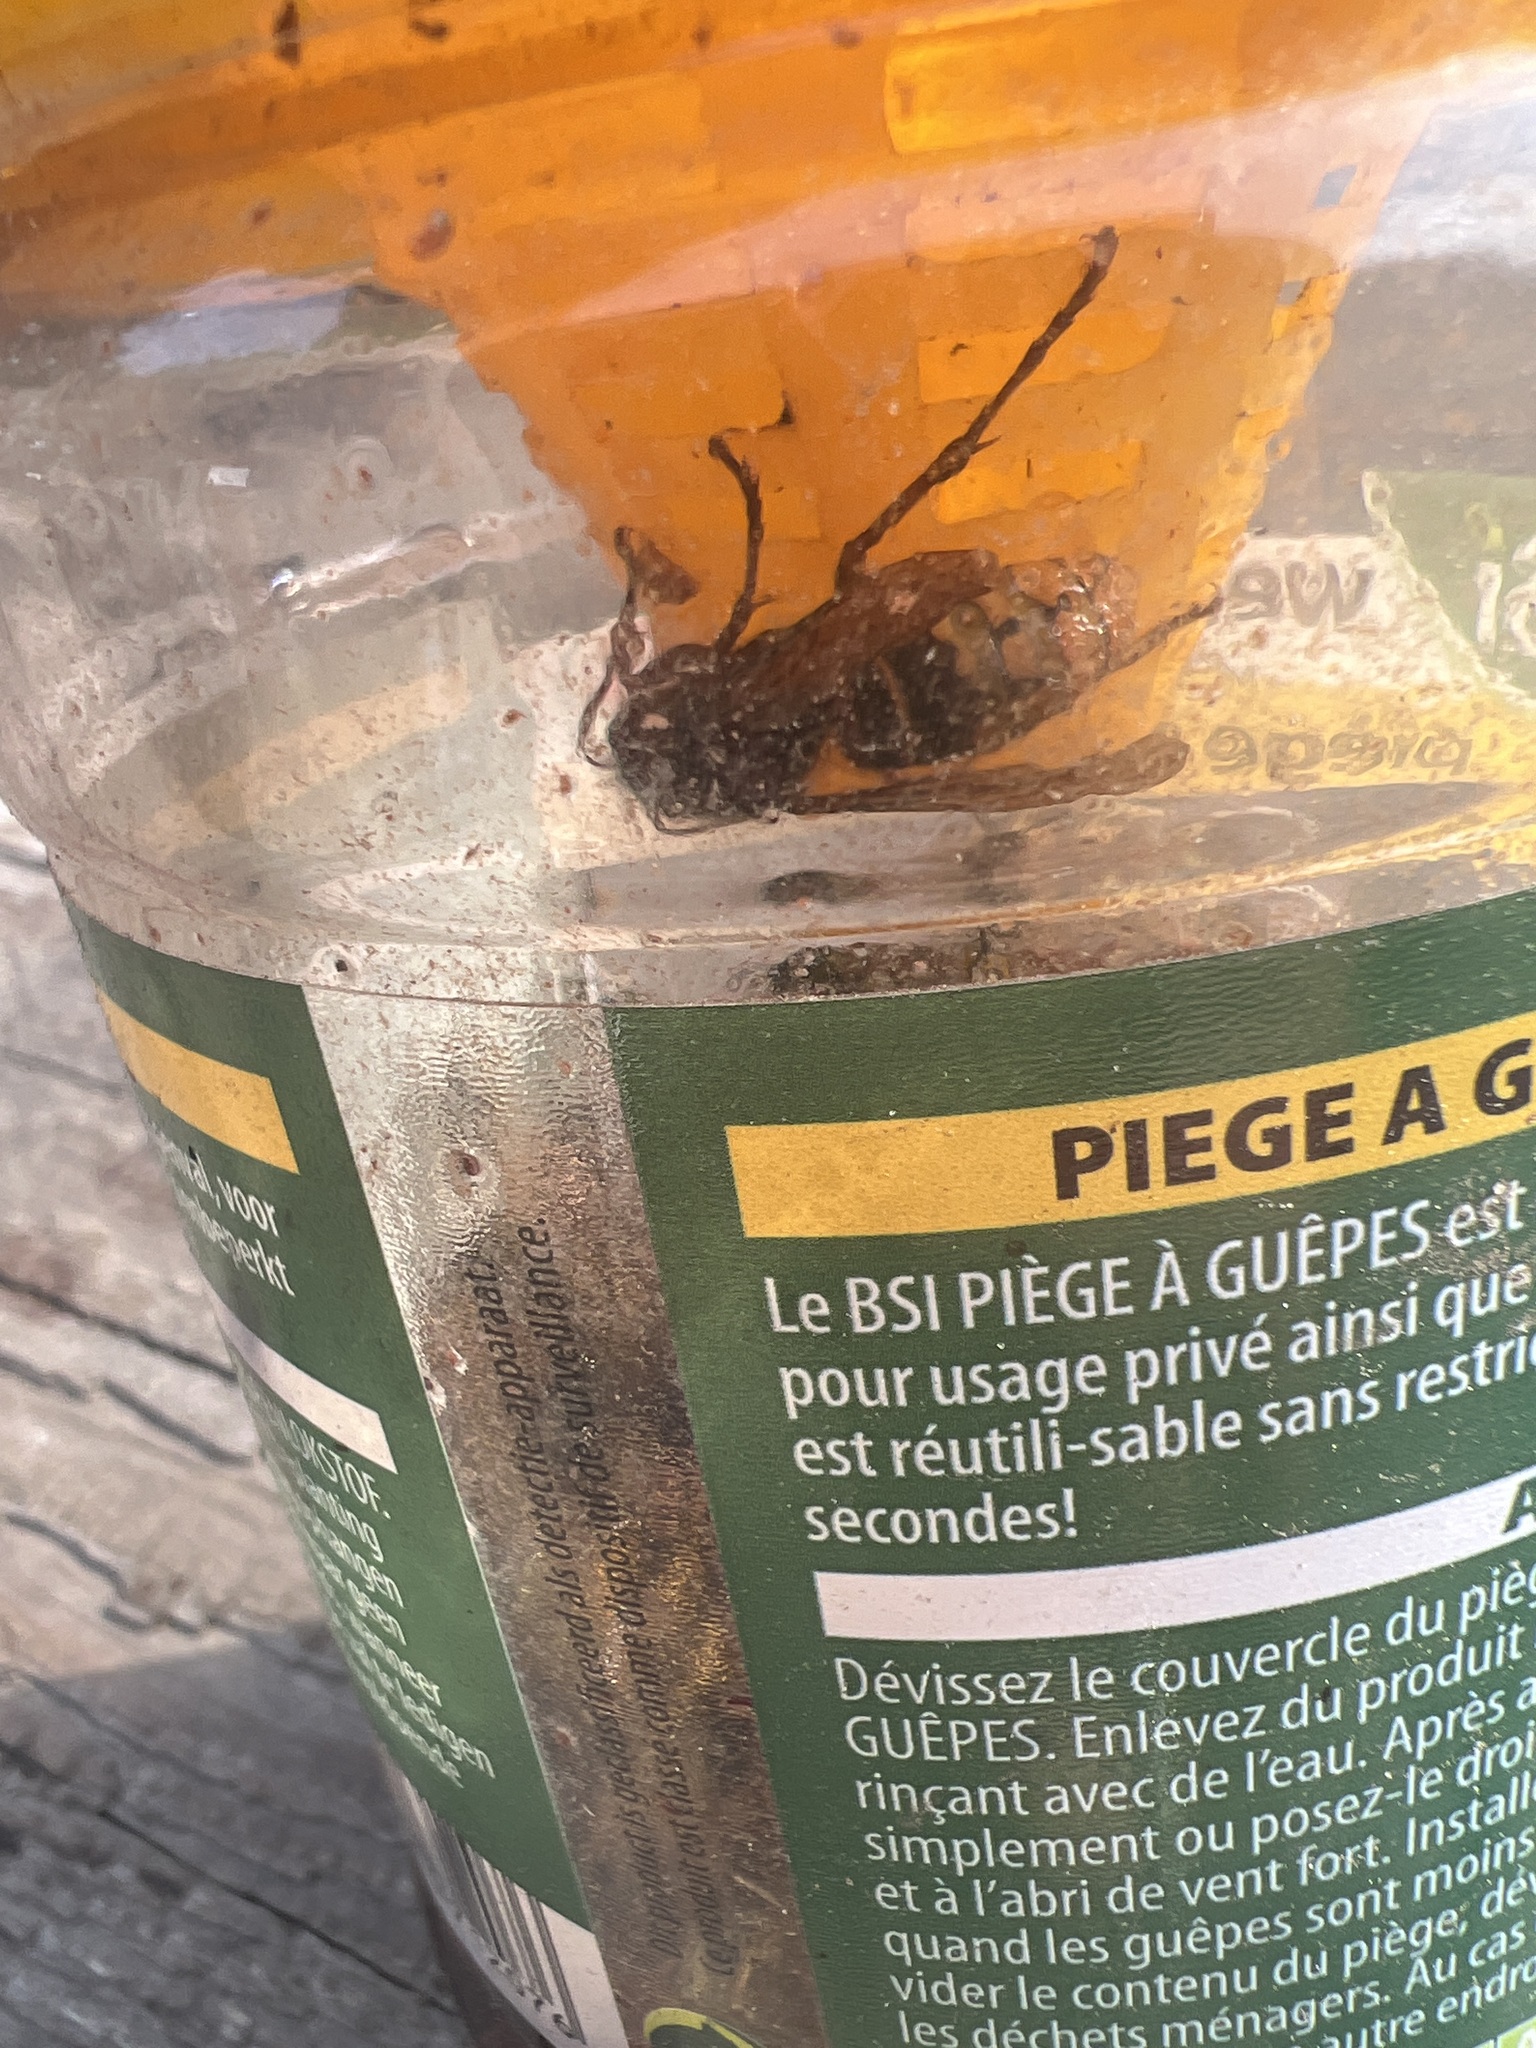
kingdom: Animalia
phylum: Arthropoda
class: Insecta
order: Hymenoptera
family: Vespidae
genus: Vespa
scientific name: Vespa crabro
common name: Hornet
